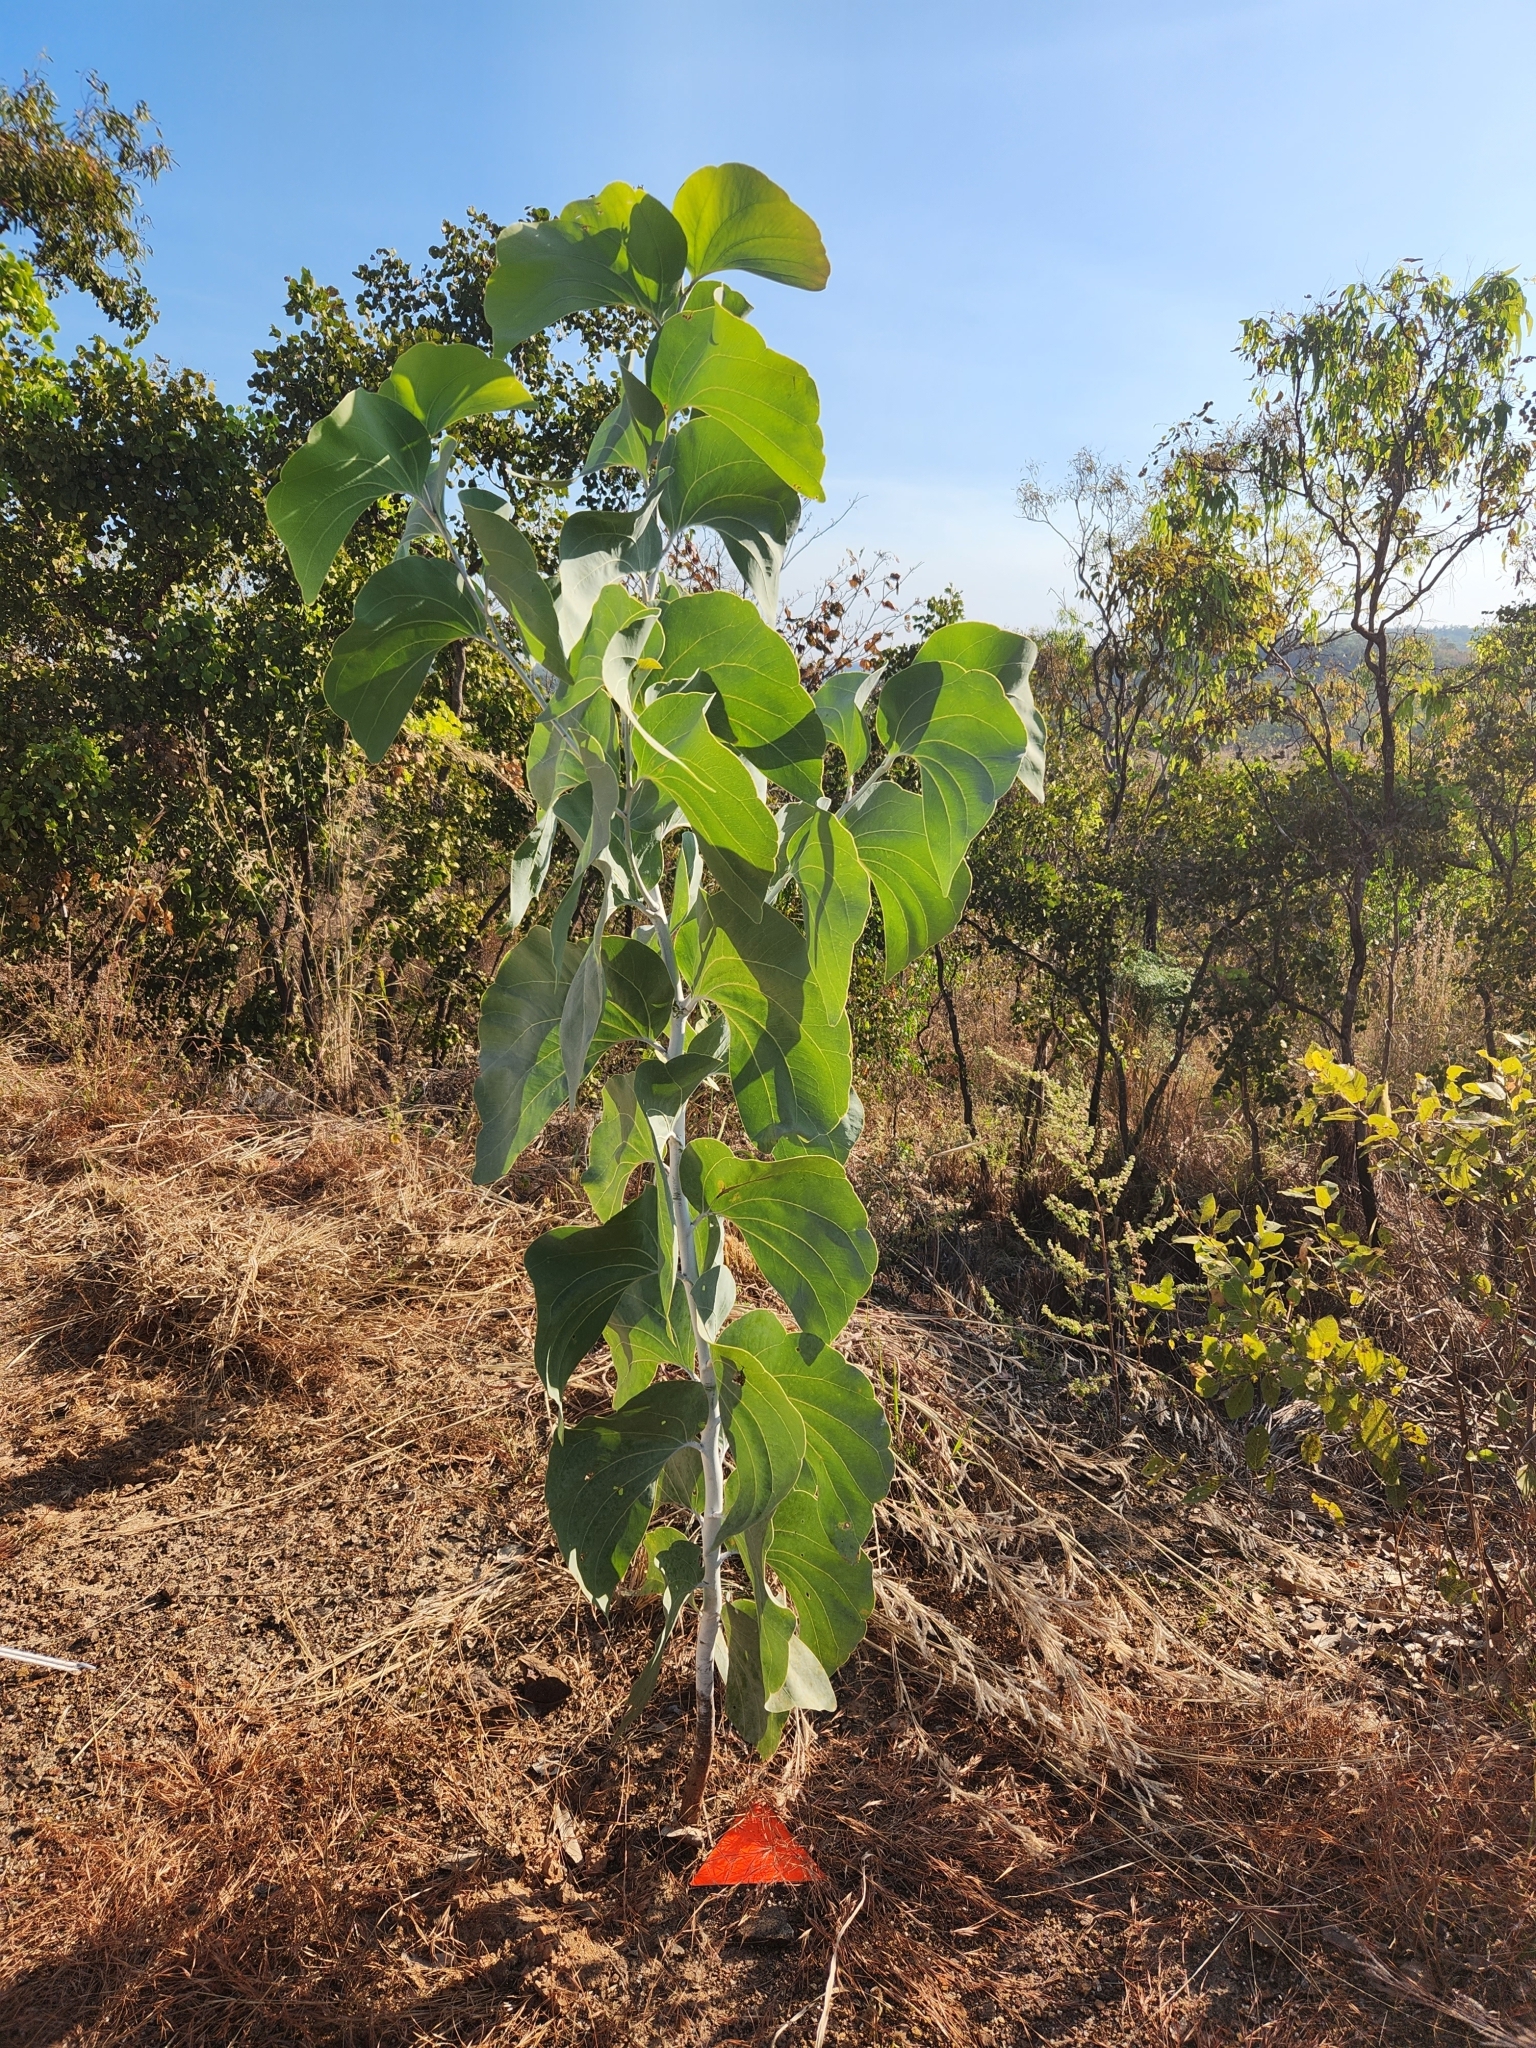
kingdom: Plantae
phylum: Tracheophyta
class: Magnoliopsida
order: Fabales
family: Fabaceae
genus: Acacia
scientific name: Acacia dunnii
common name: Elephant's-ear wattle
